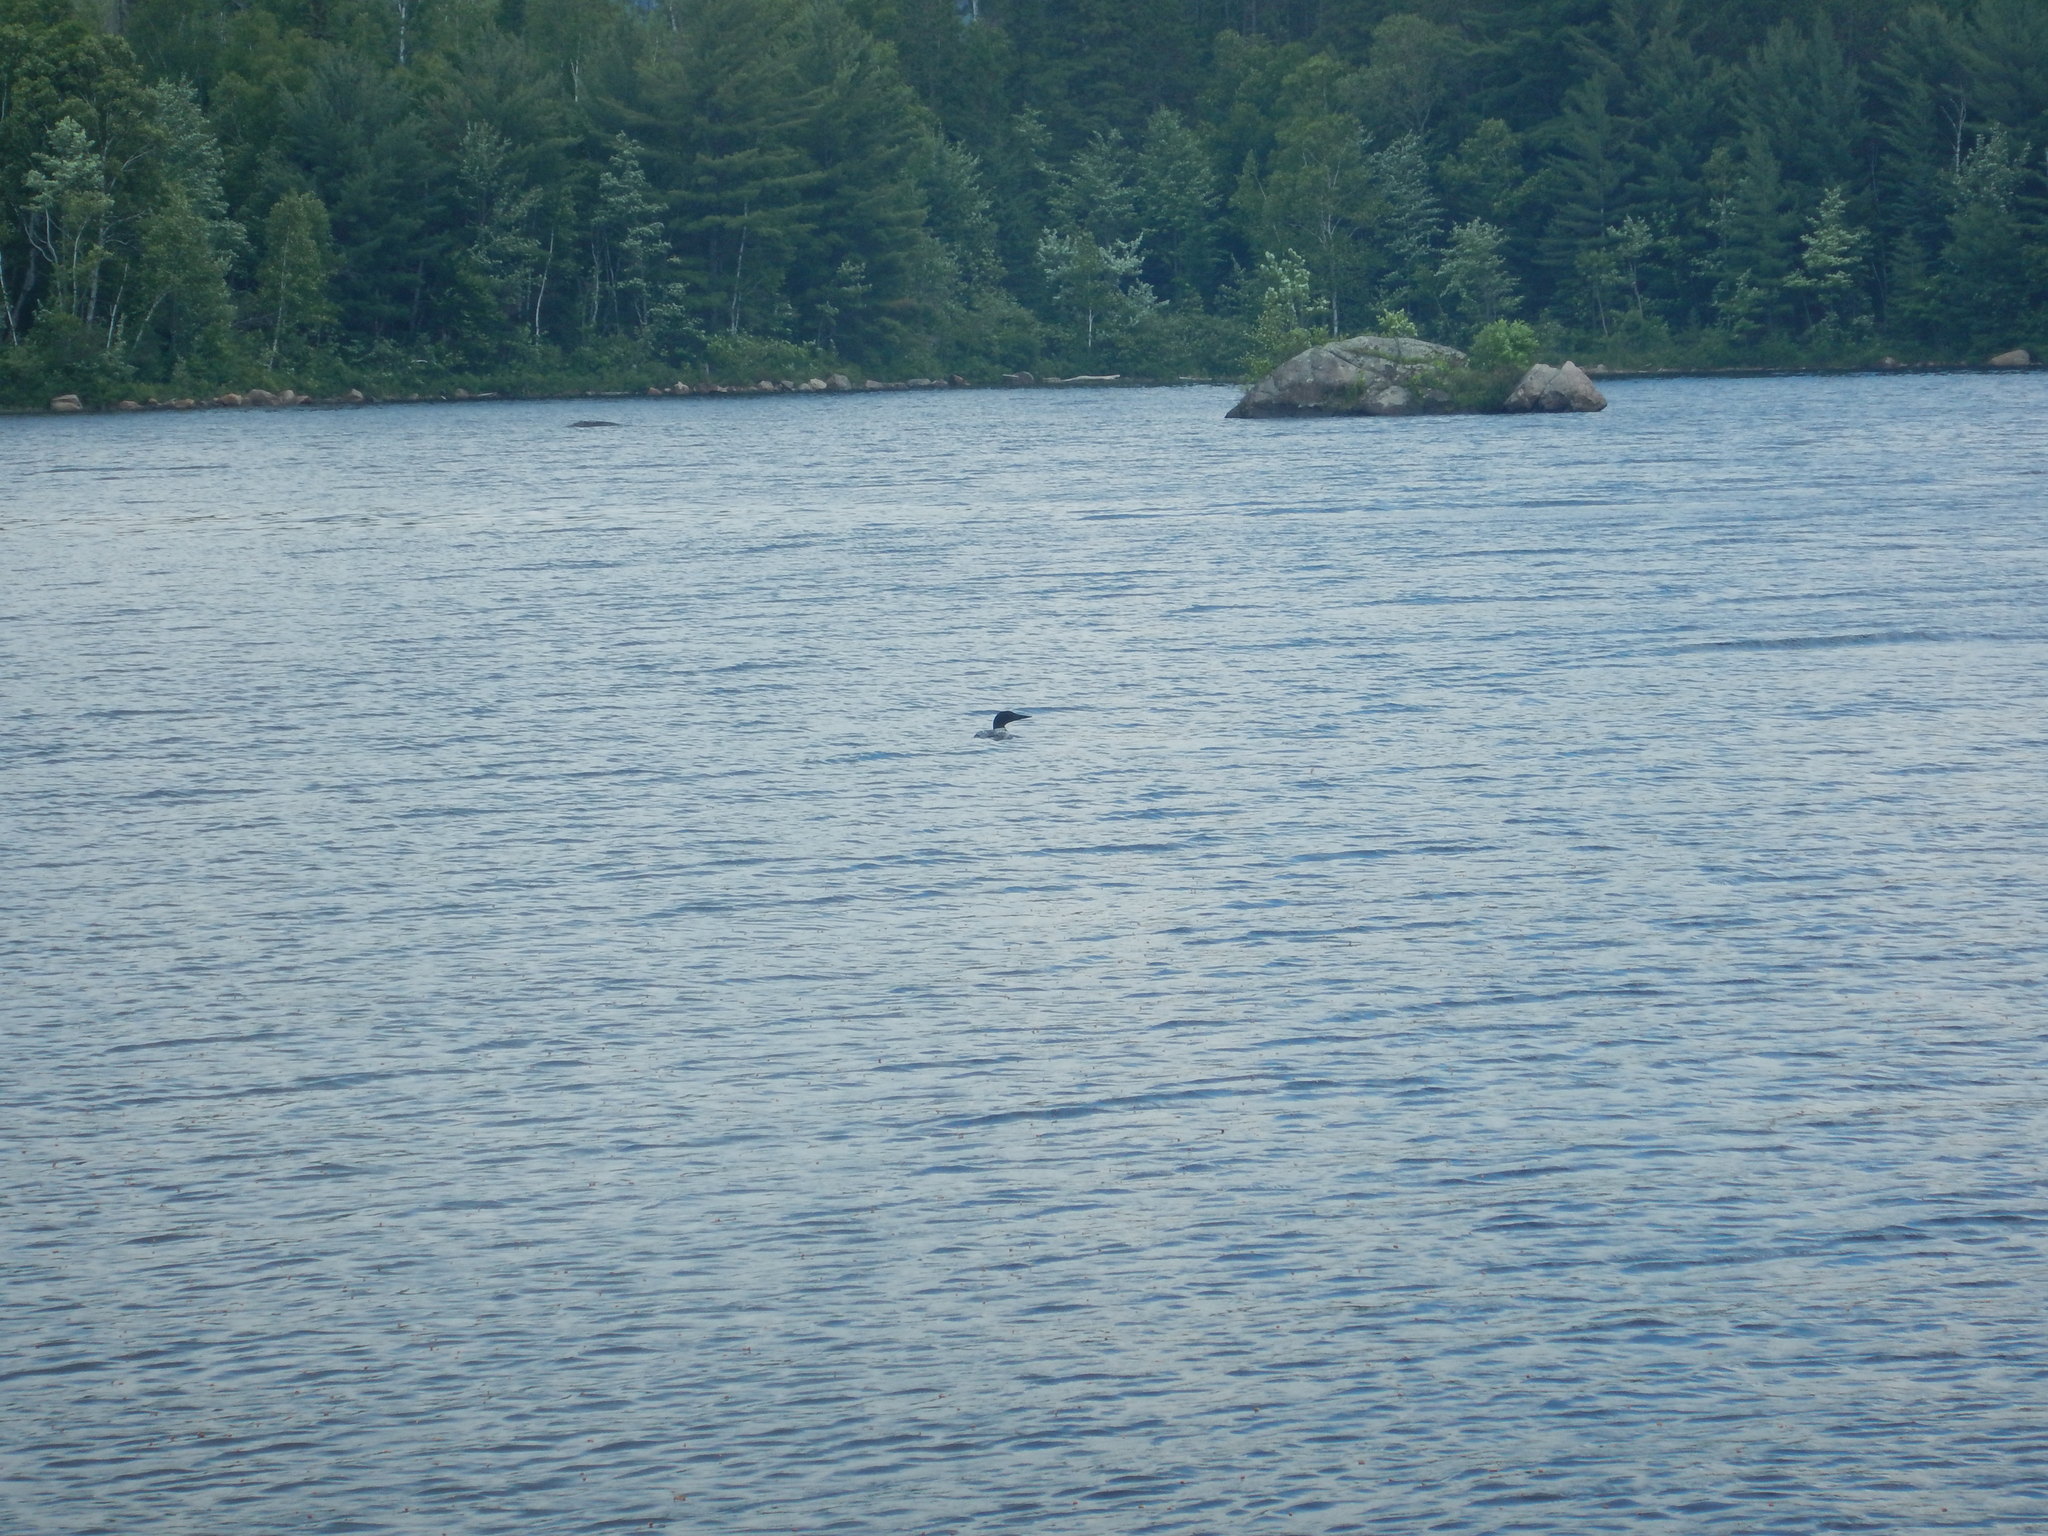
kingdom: Animalia
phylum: Chordata
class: Aves
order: Gaviiformes
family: Gaviidae
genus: Gavia
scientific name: Gavia immer
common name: Common loon
